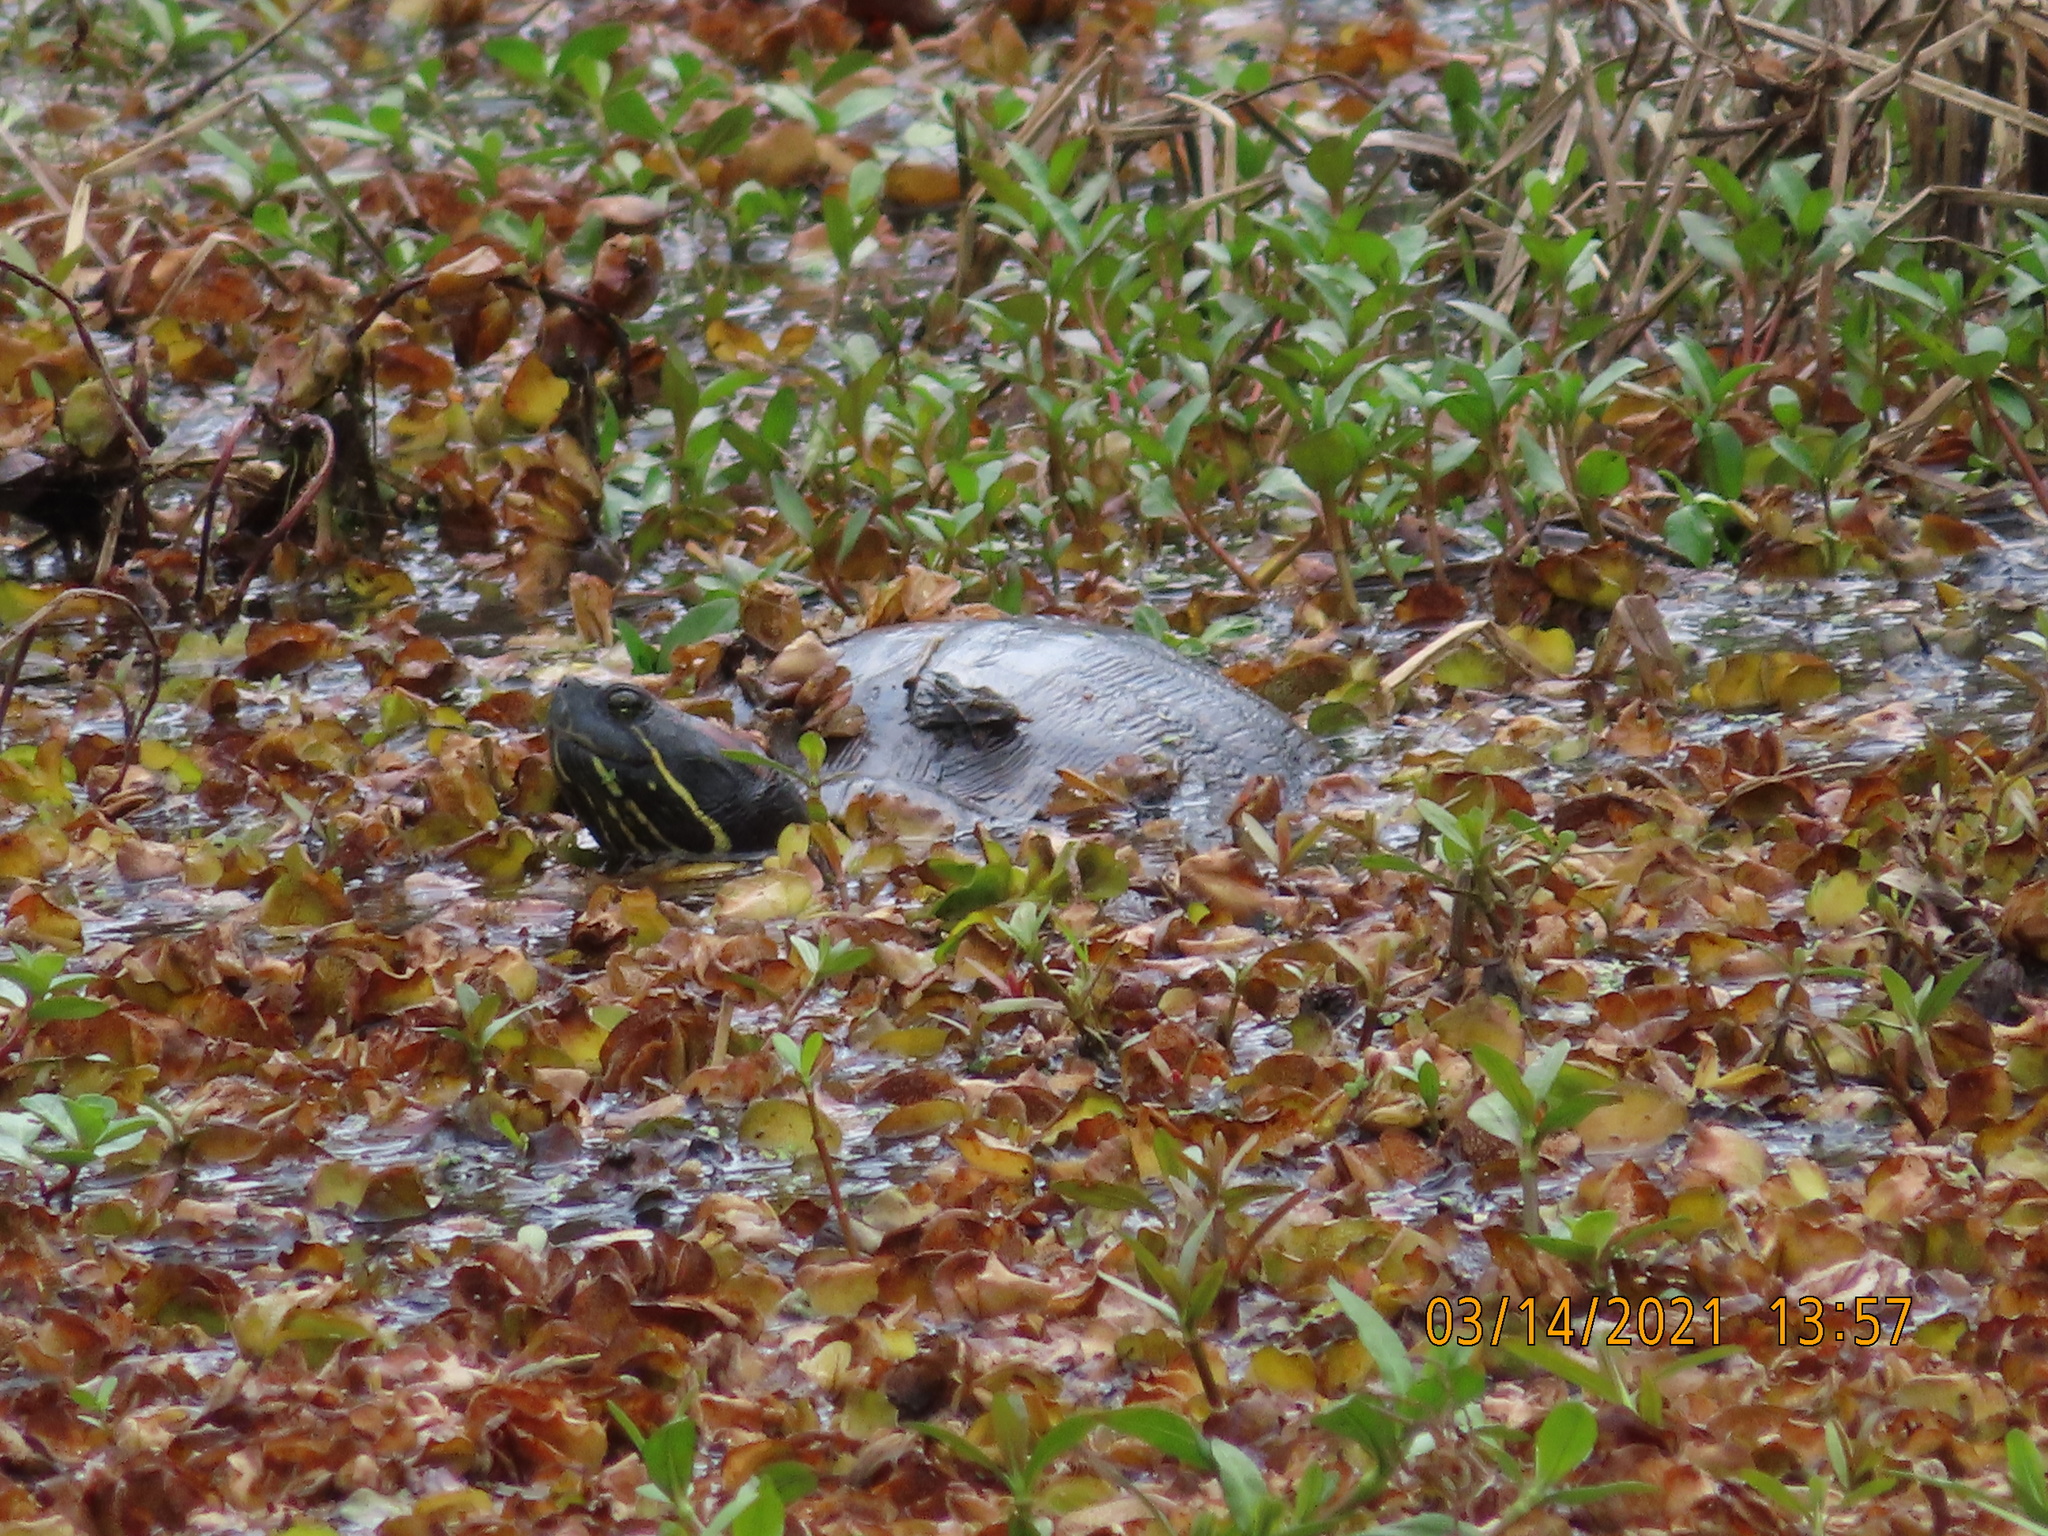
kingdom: Animalia
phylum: Chordata
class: Testudines
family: Emydidae
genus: Trachemys
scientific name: Trachemys scripta
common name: Slider
